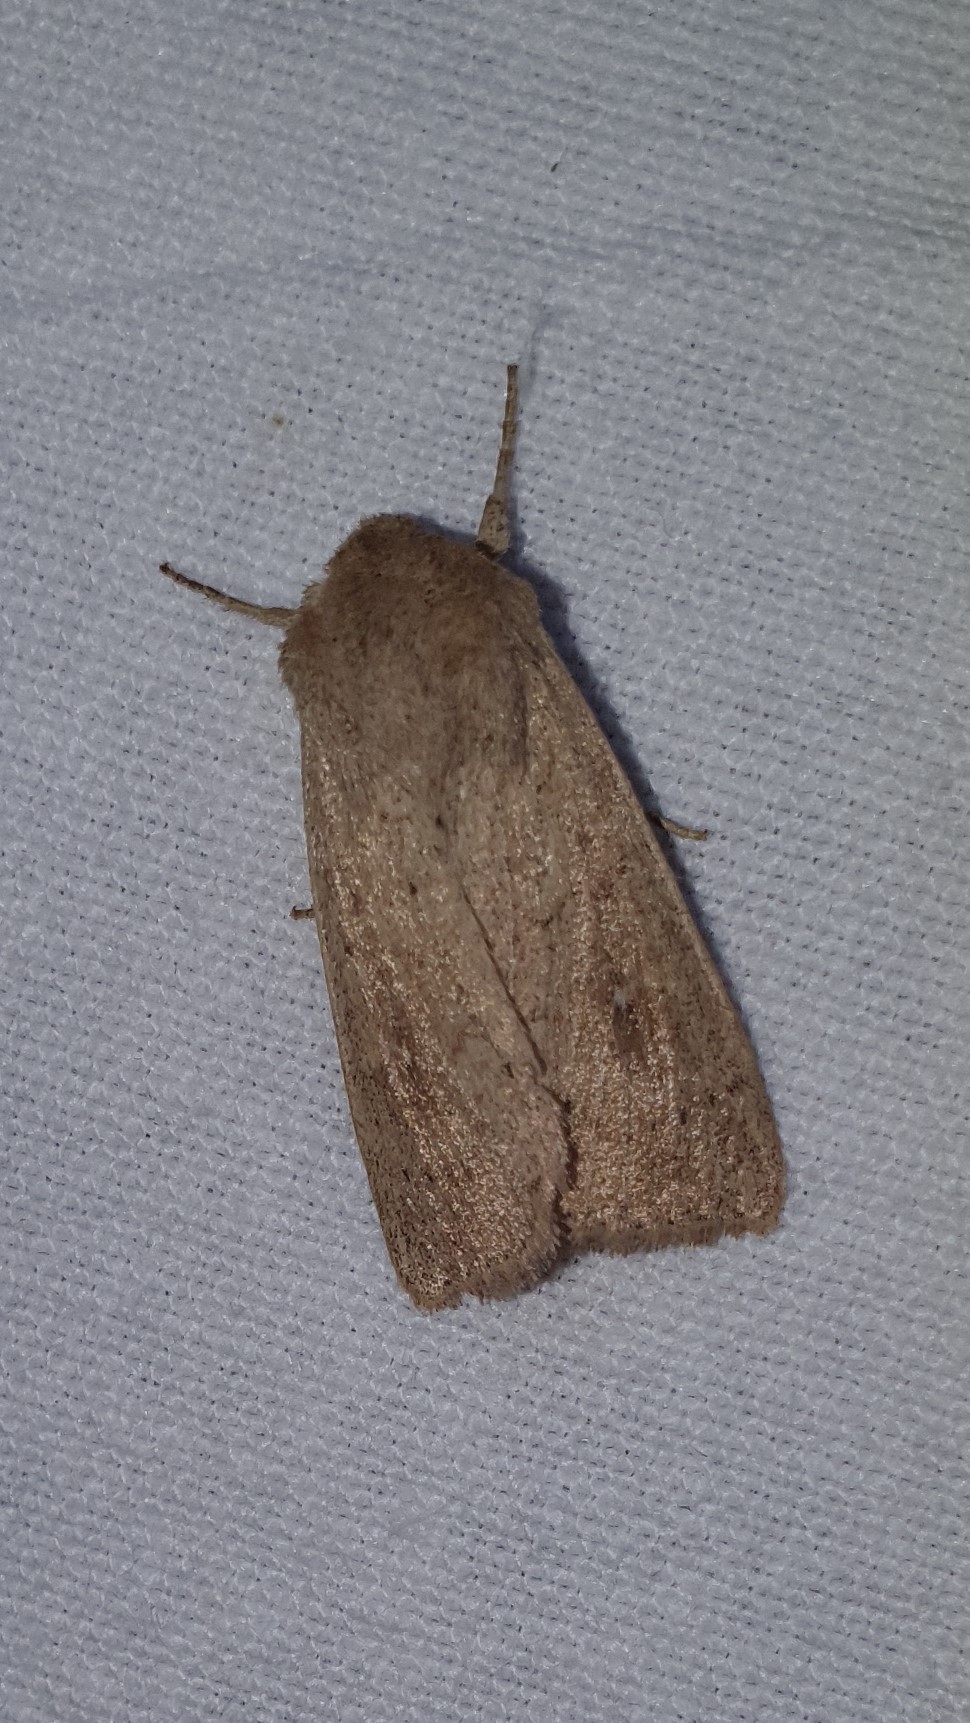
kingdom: Animalia
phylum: Arthropoda
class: Insecta
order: Lepidoptera
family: Noctuidae
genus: Mythimna
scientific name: Mythimna ferrago
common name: Clay
